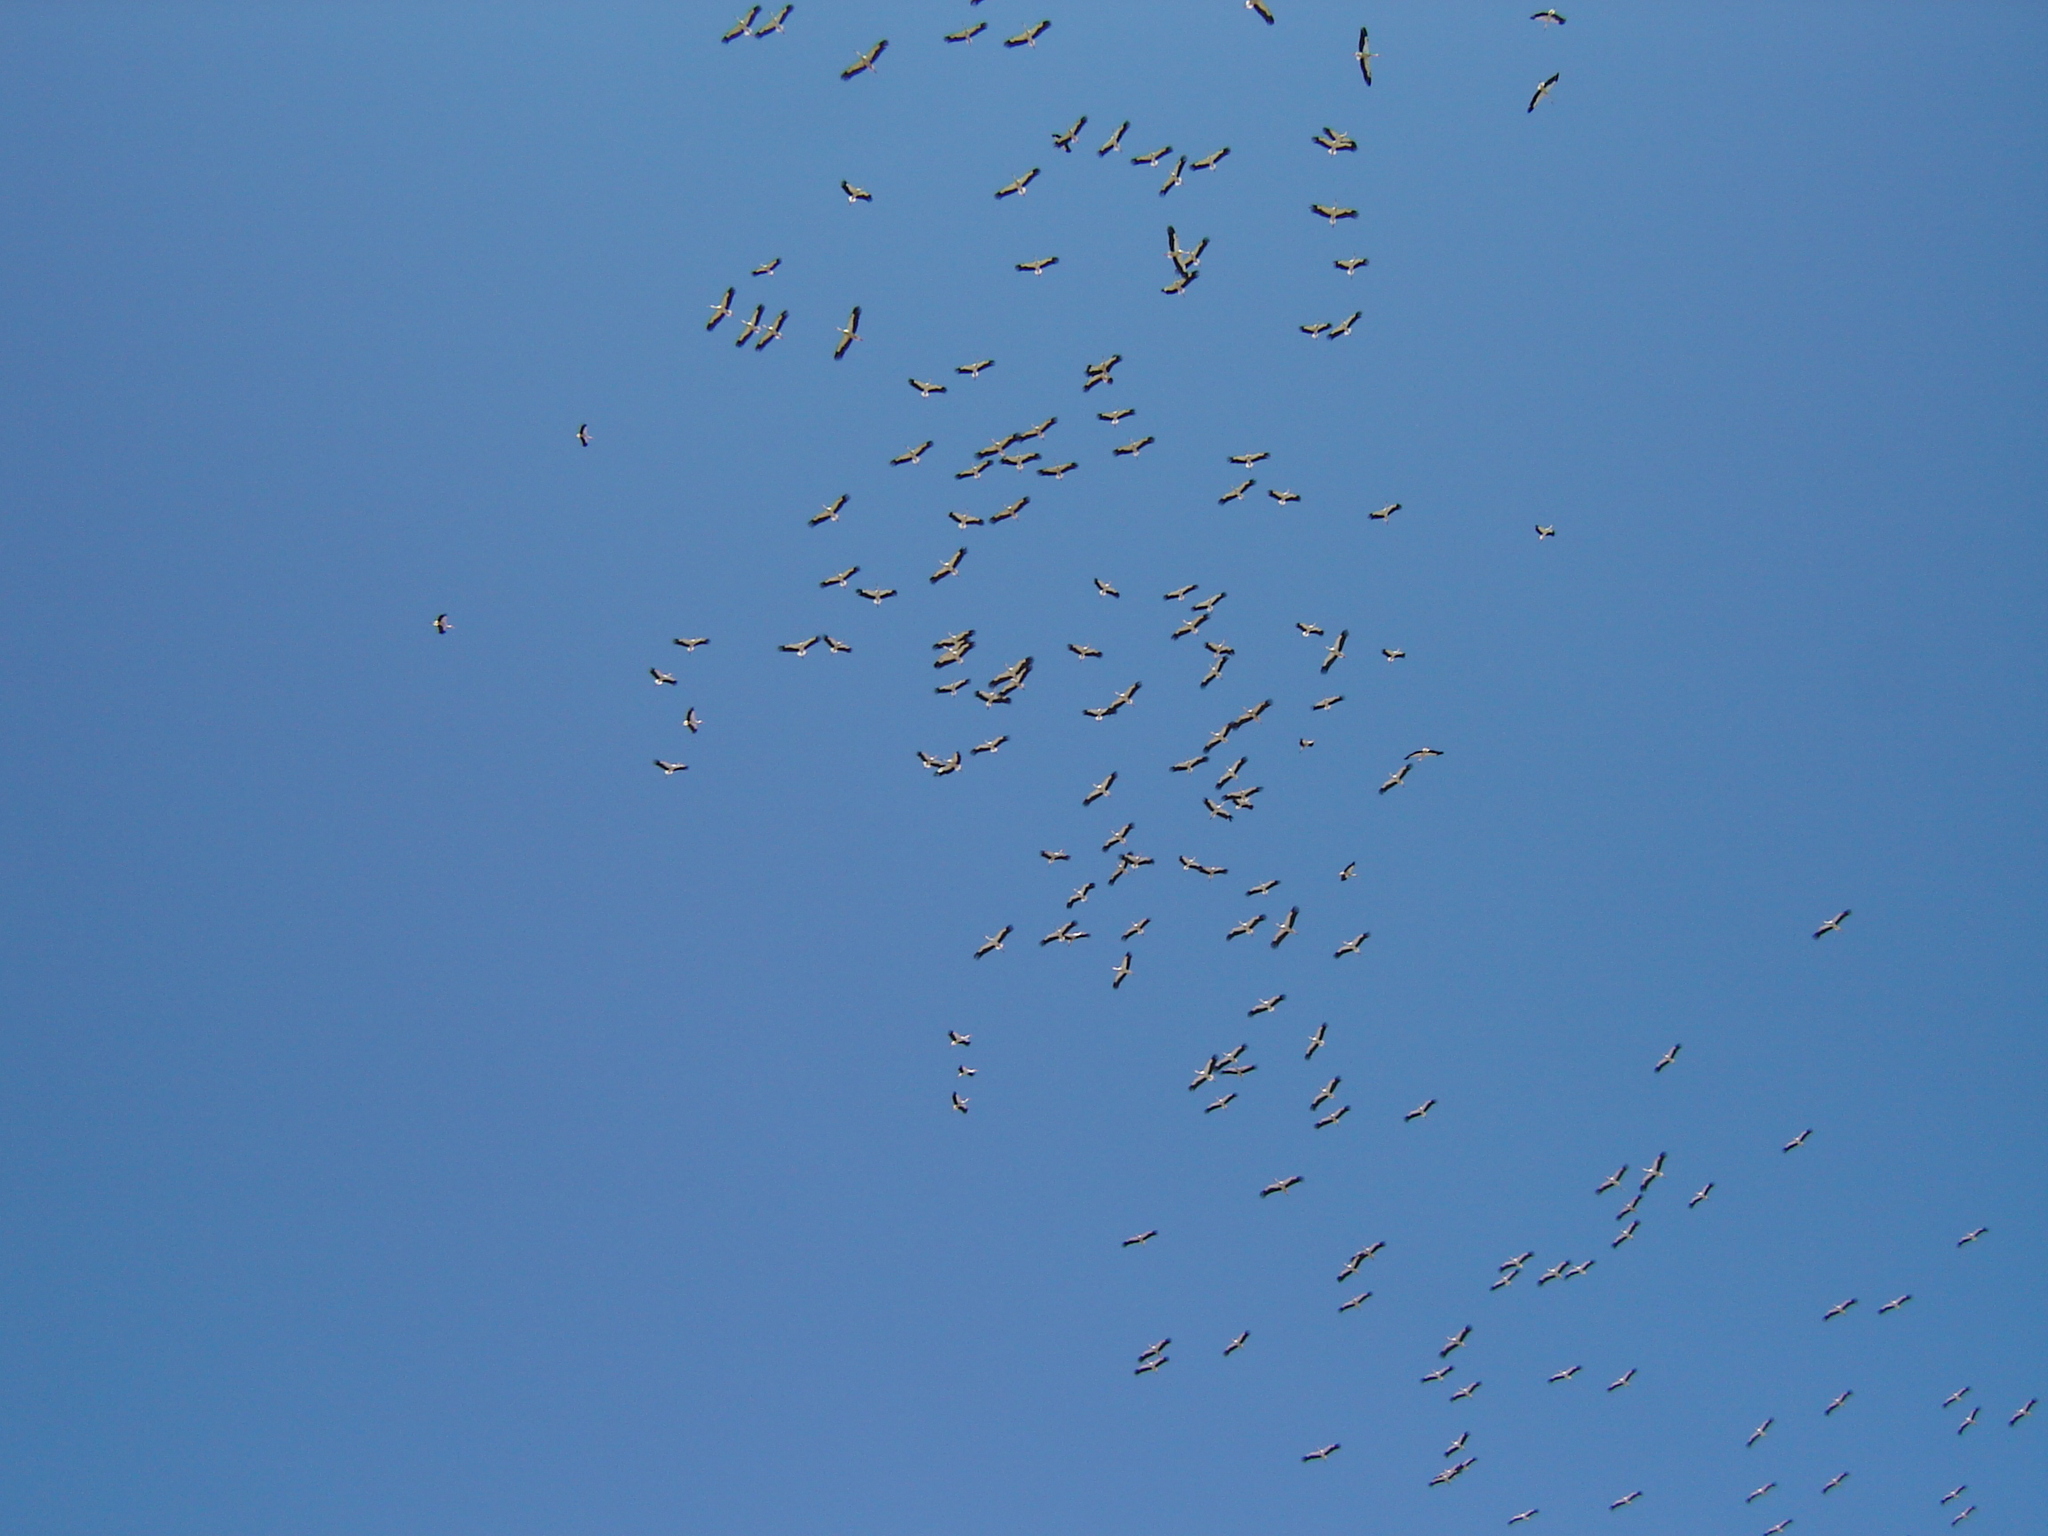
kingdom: Animalia
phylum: Chordata
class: Aves
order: Ciconiiformes
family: Ciconiidae
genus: Ciconia
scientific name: Ciconia ciconia
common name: White stork
